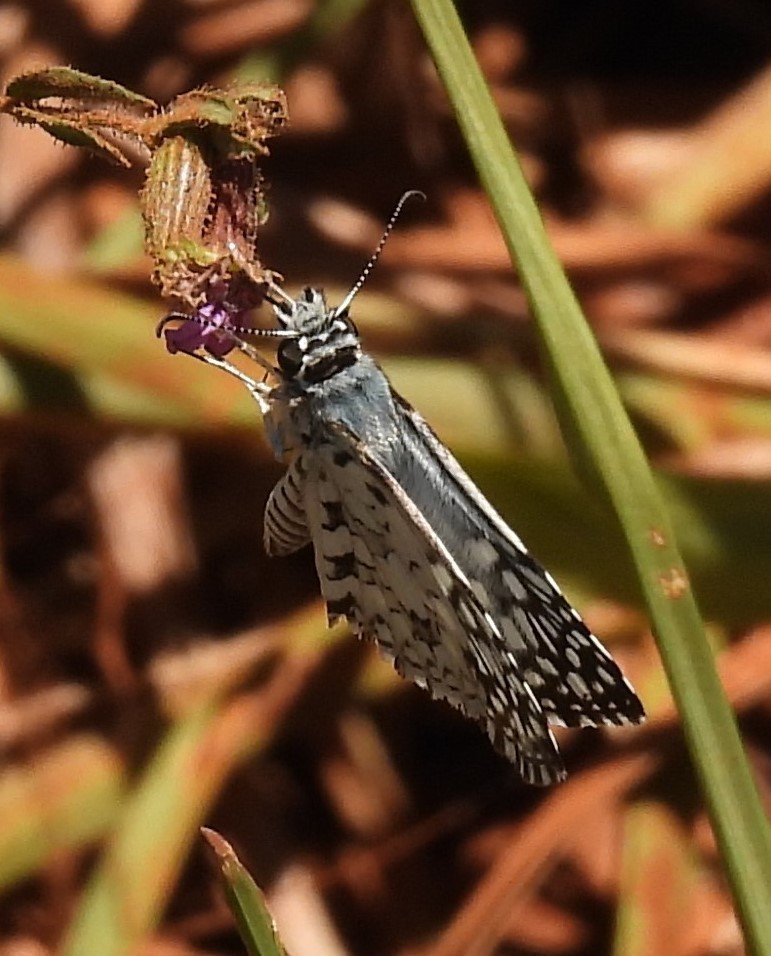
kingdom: Animalia
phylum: Arthropoda
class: Insecta
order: Lepidoptera
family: Hesperiidae
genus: Pyrgus
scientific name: Pyrgus oileus
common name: Tropical checkered-skipper
